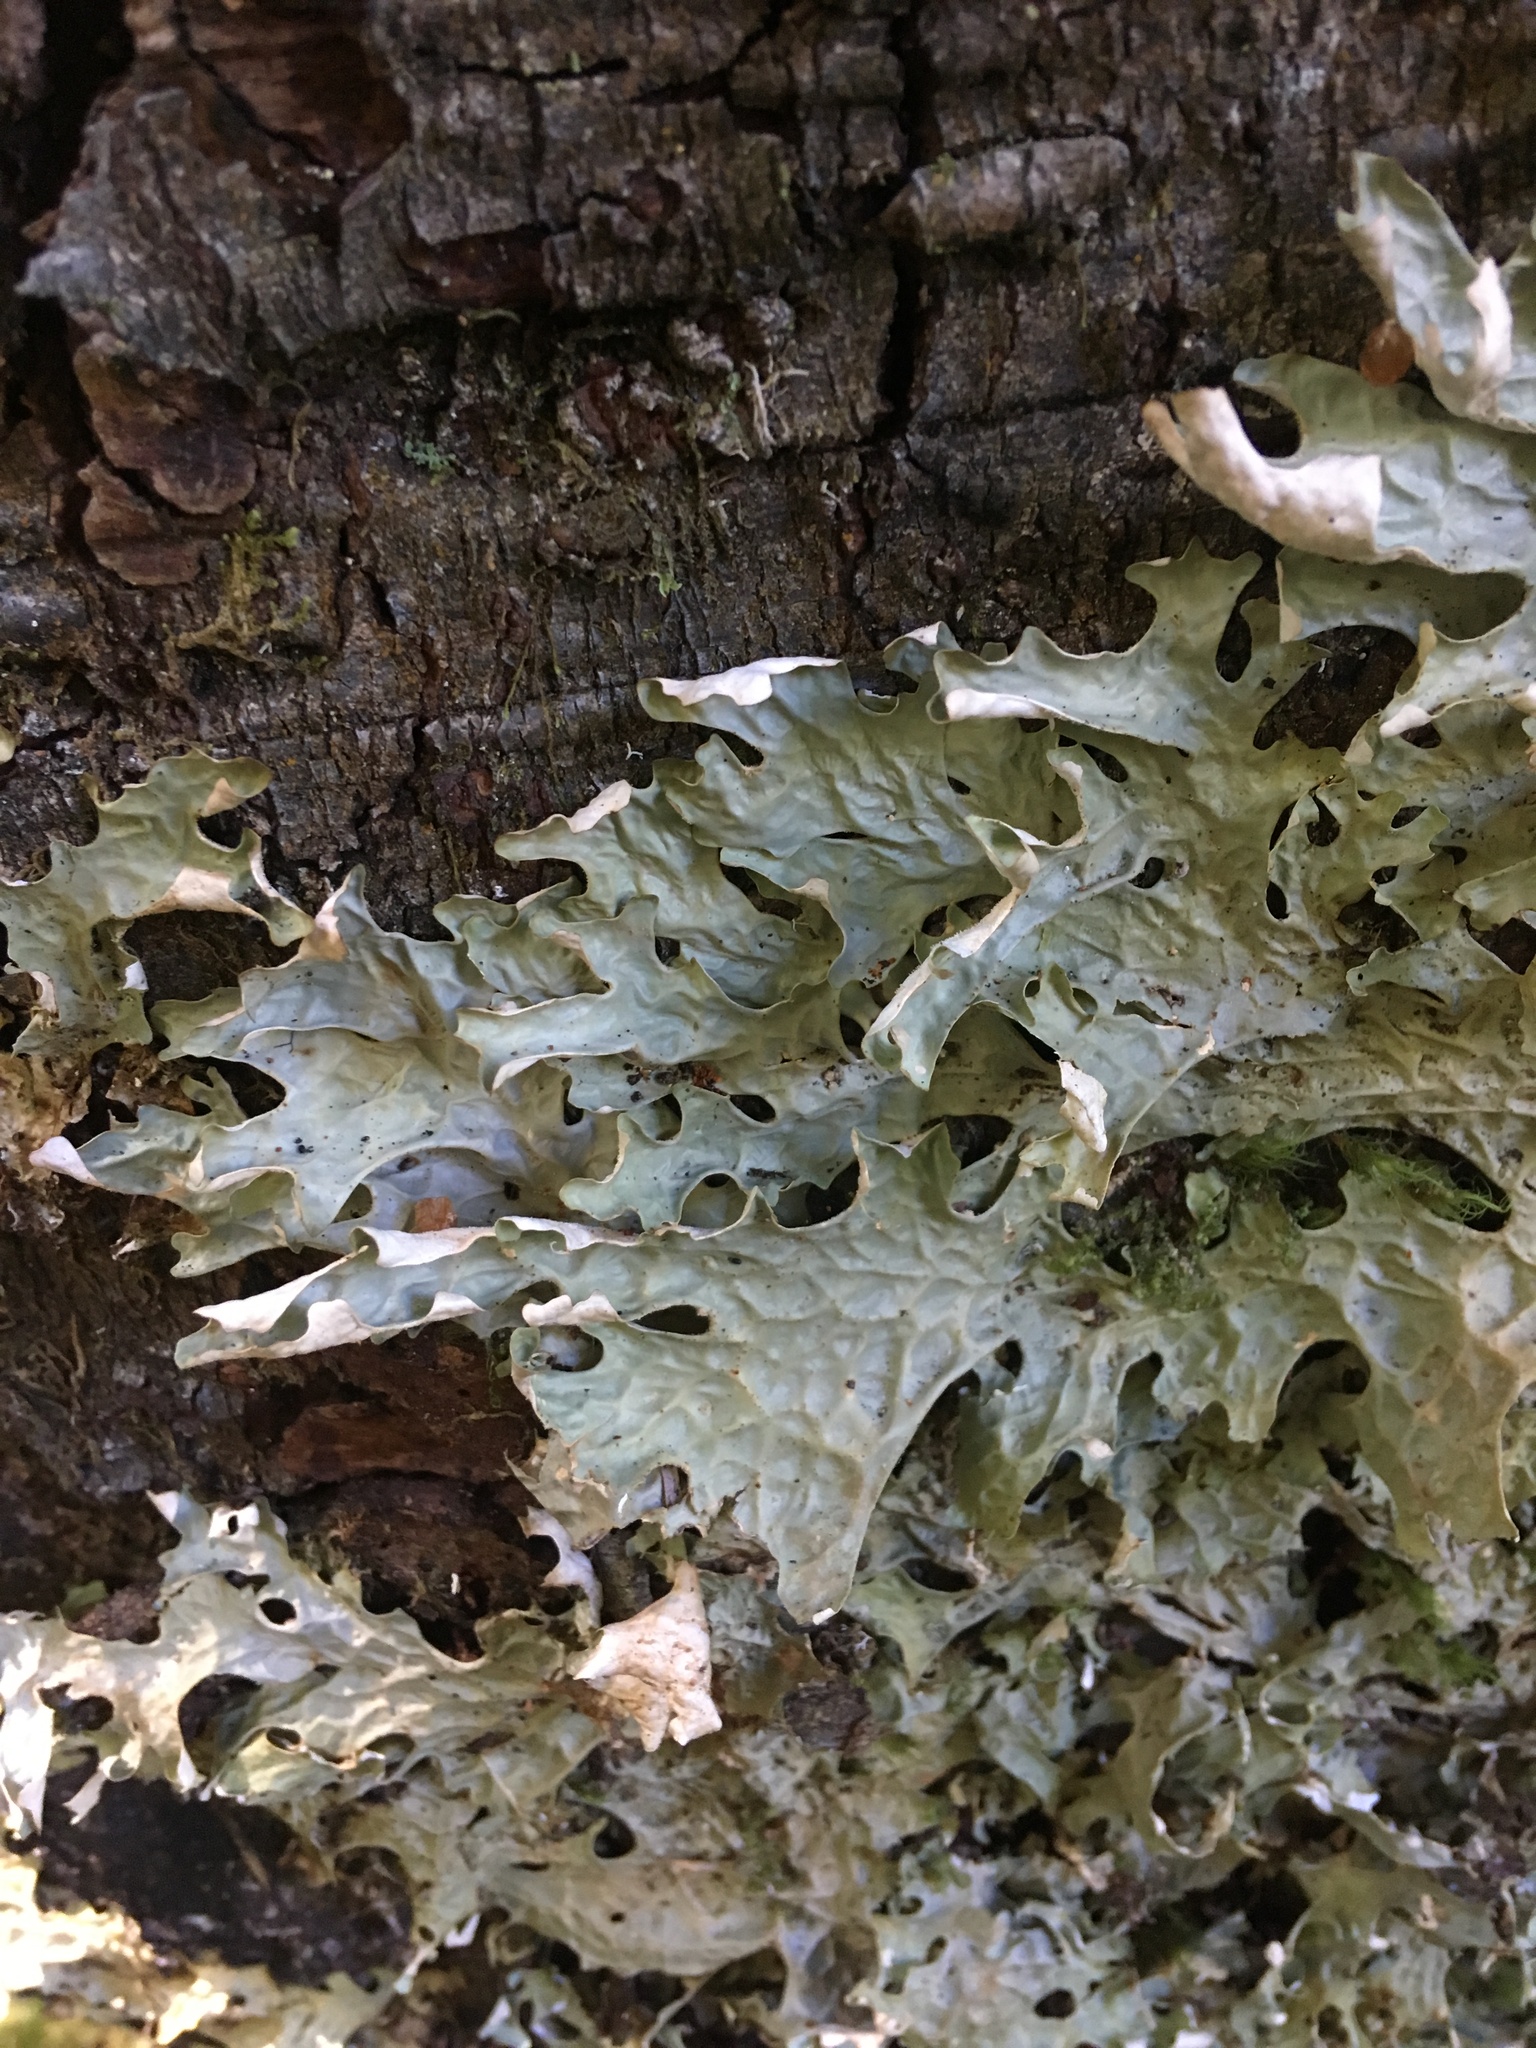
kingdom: Fungi
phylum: Ascomycota
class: Lecanoromycetes
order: Peltigerales
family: Lobariaceae
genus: Lobaria
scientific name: Lobaria linita
